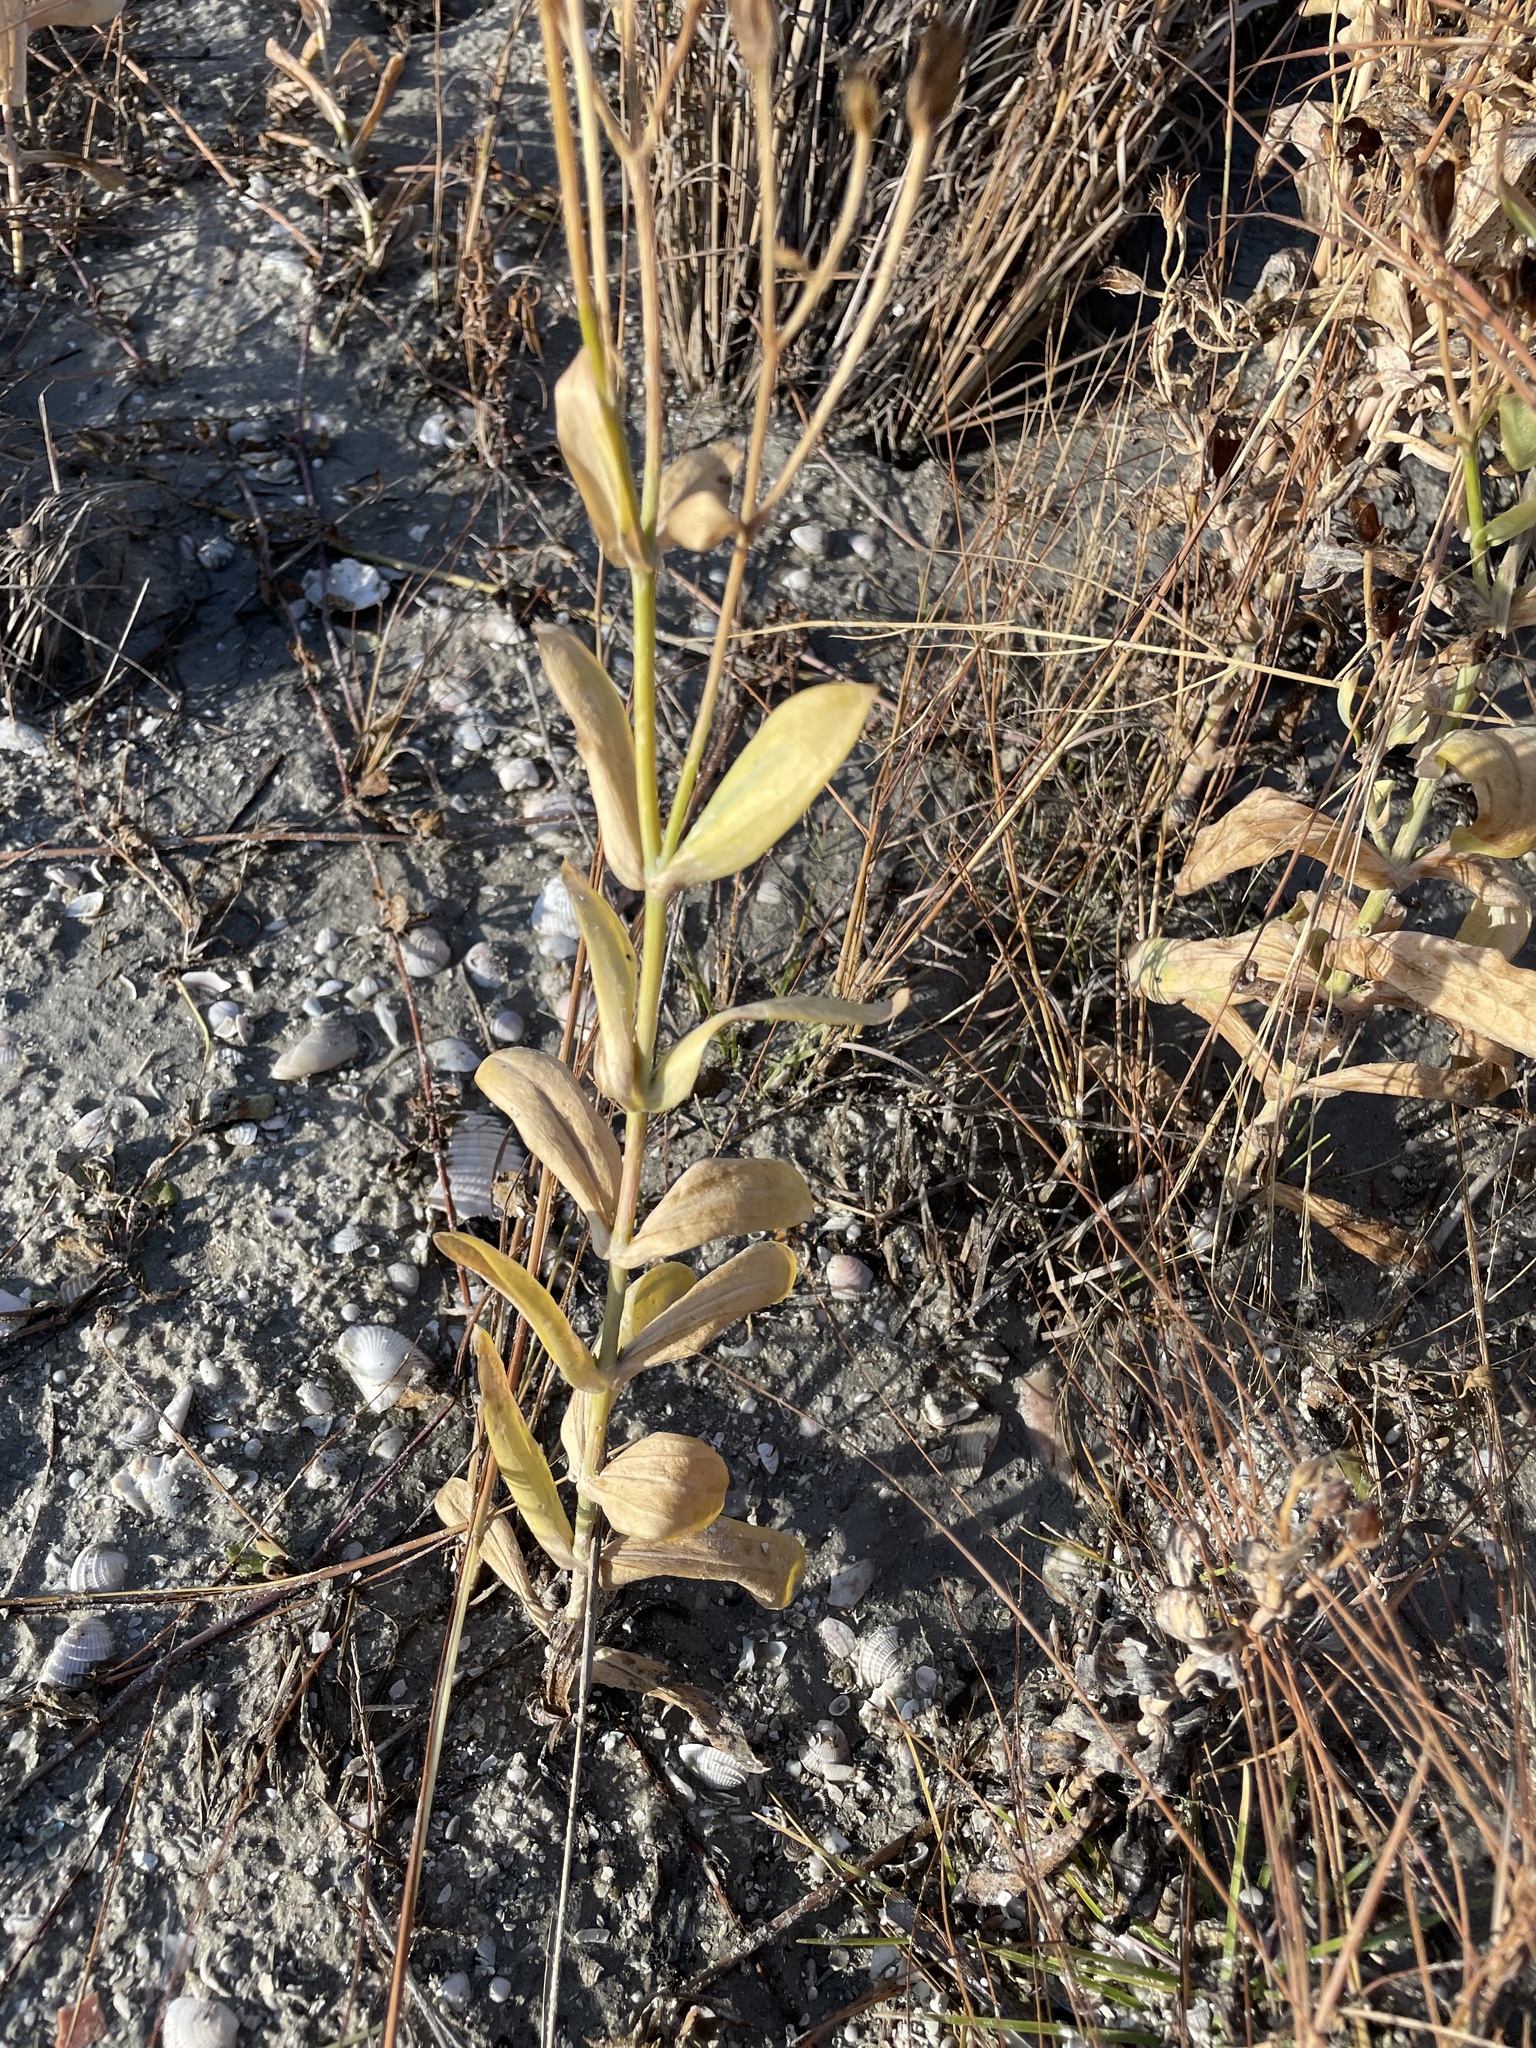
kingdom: Plantae
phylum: Tracheophyta
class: Magnoliopsida
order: Gentianales
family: Gentianaceae
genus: Eustoma
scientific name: Eustoma exaltatum
